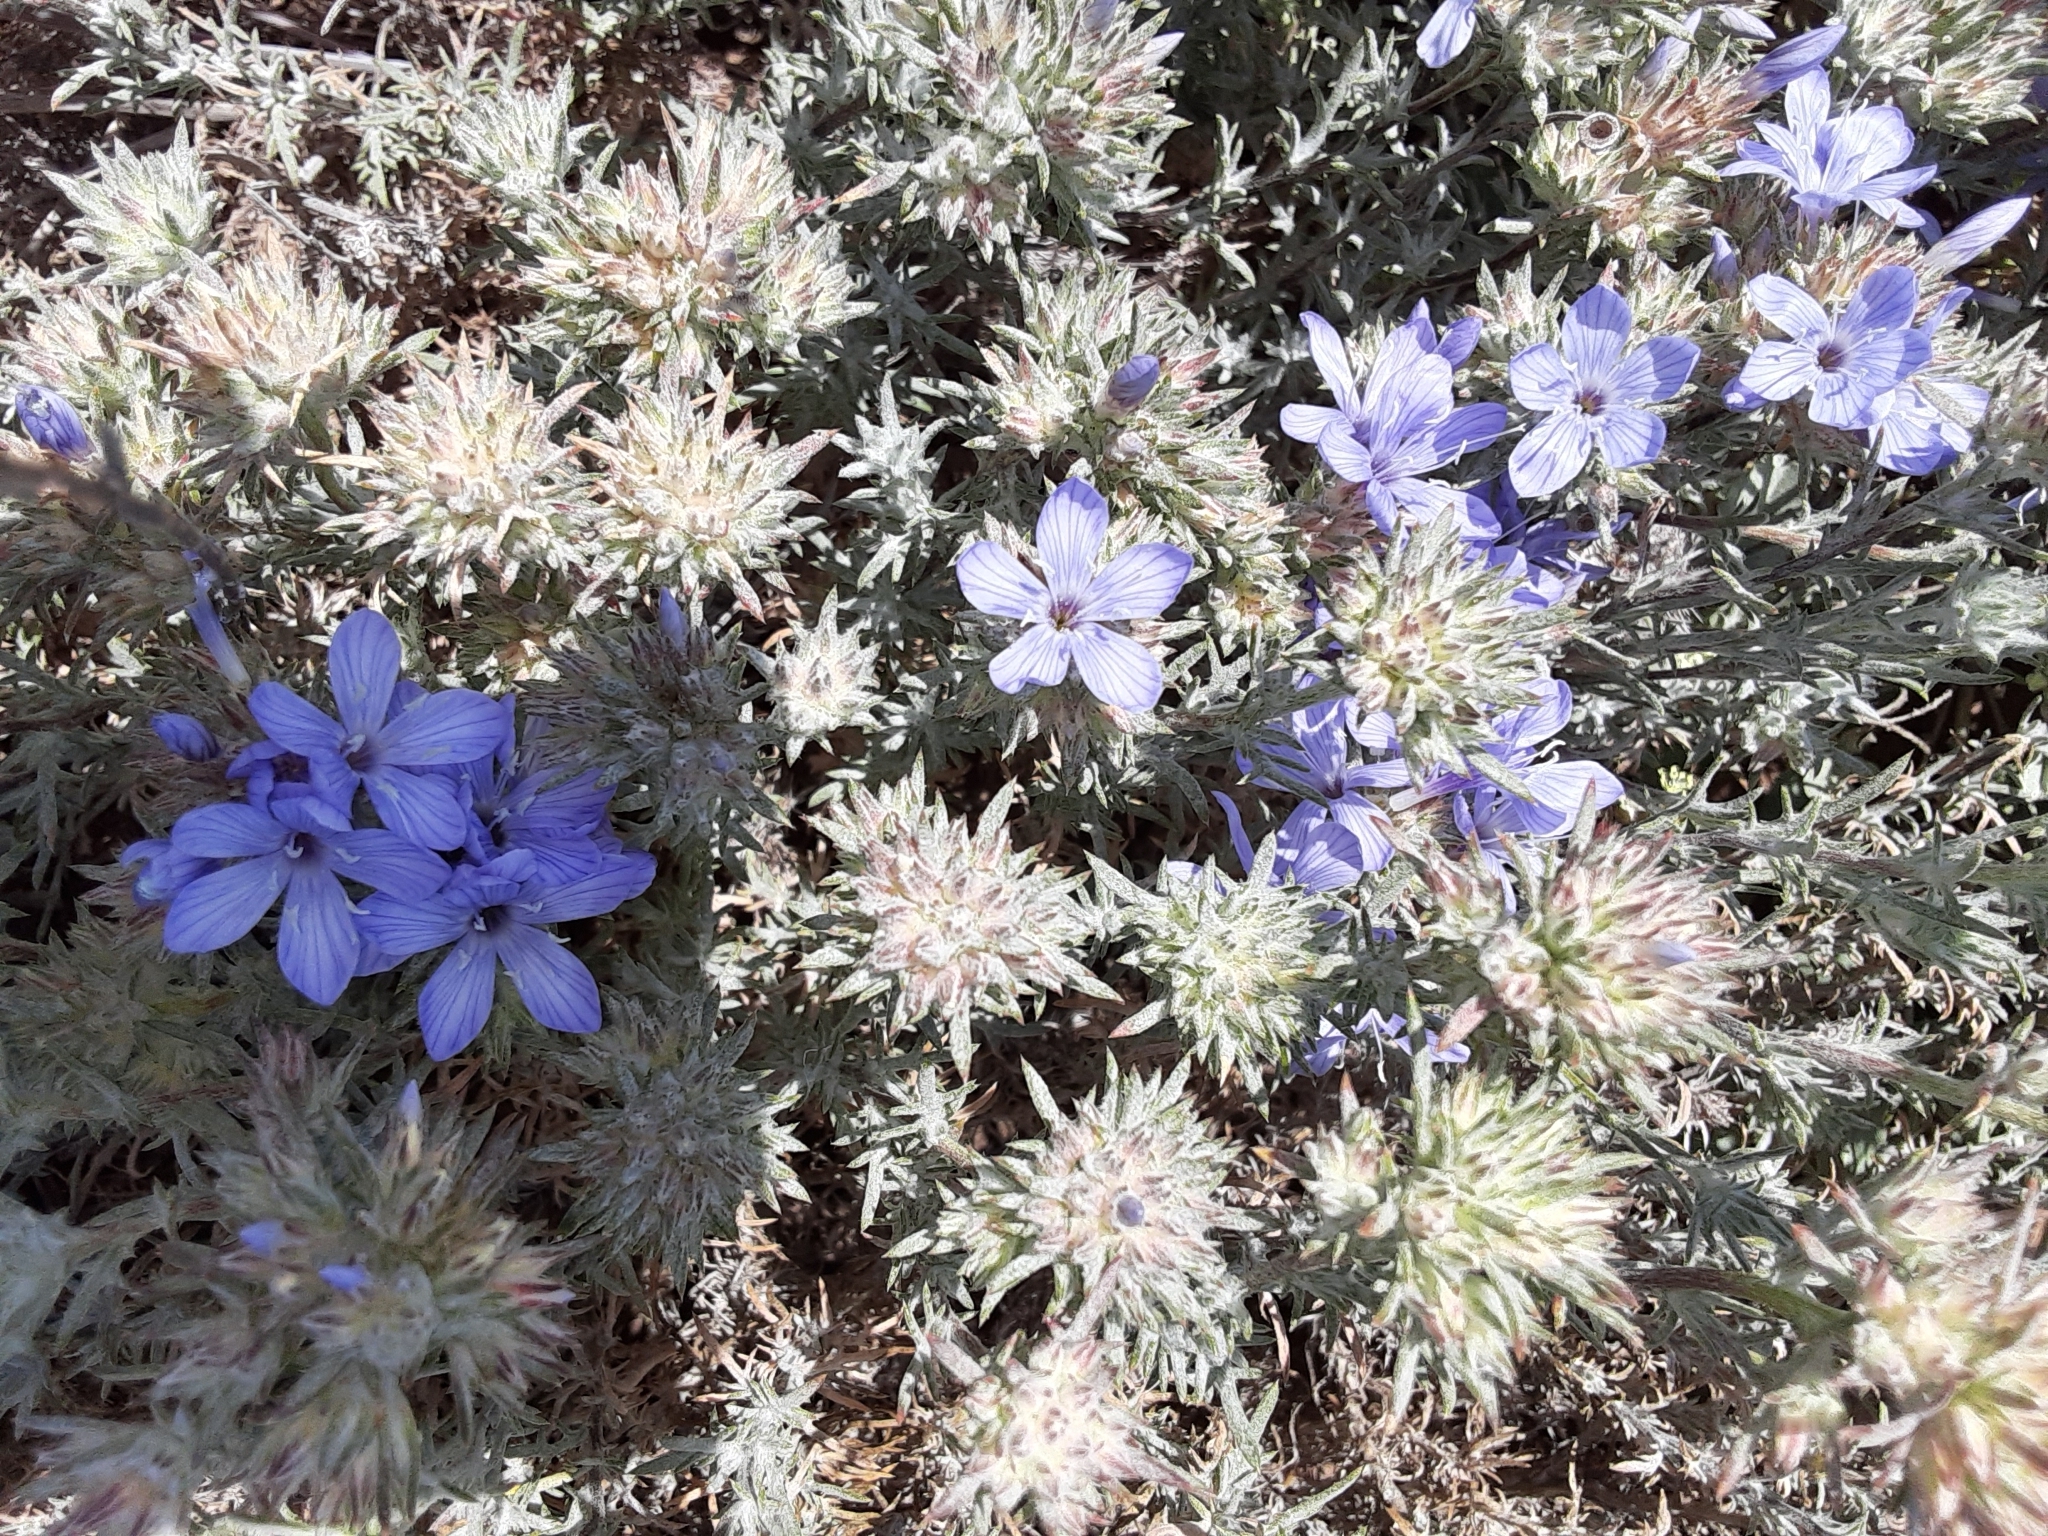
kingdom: Plantae
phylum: Tracheophyta
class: Magnoliopsida
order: Ericales
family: Polemoniaceae
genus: Eriastrum
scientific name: Eriastrum densifolium
